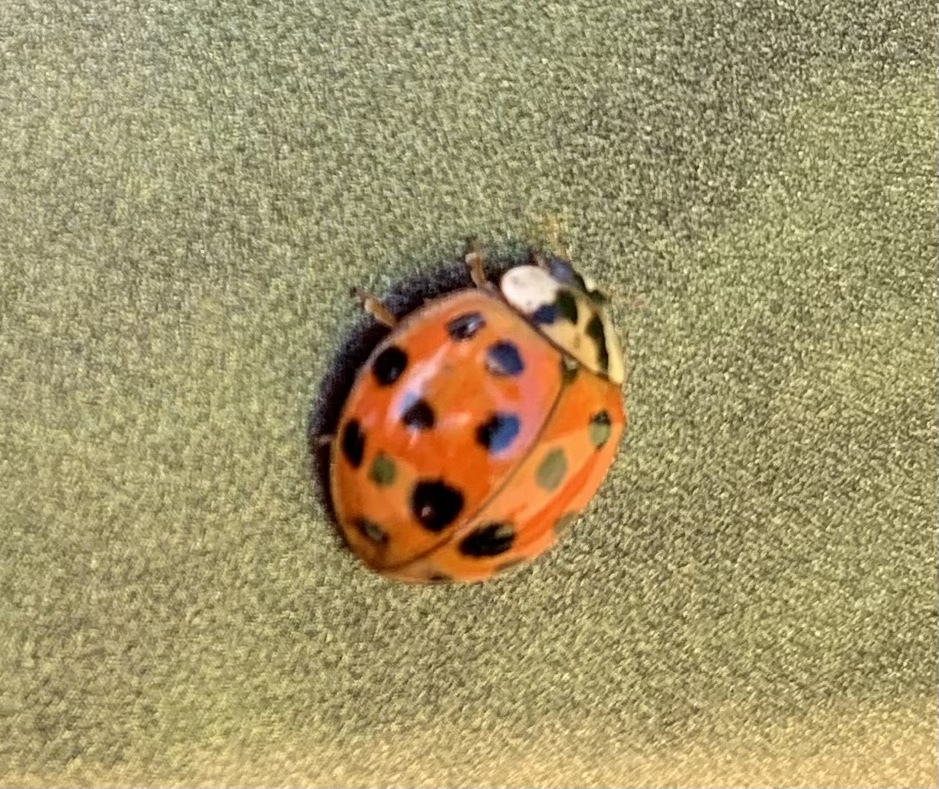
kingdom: Animalia
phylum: Arthropoda
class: Insecta
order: Coleoptera
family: Coccinellidae
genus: Harmonia
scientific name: Harmonia axyridis
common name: Harlequin ladybird
